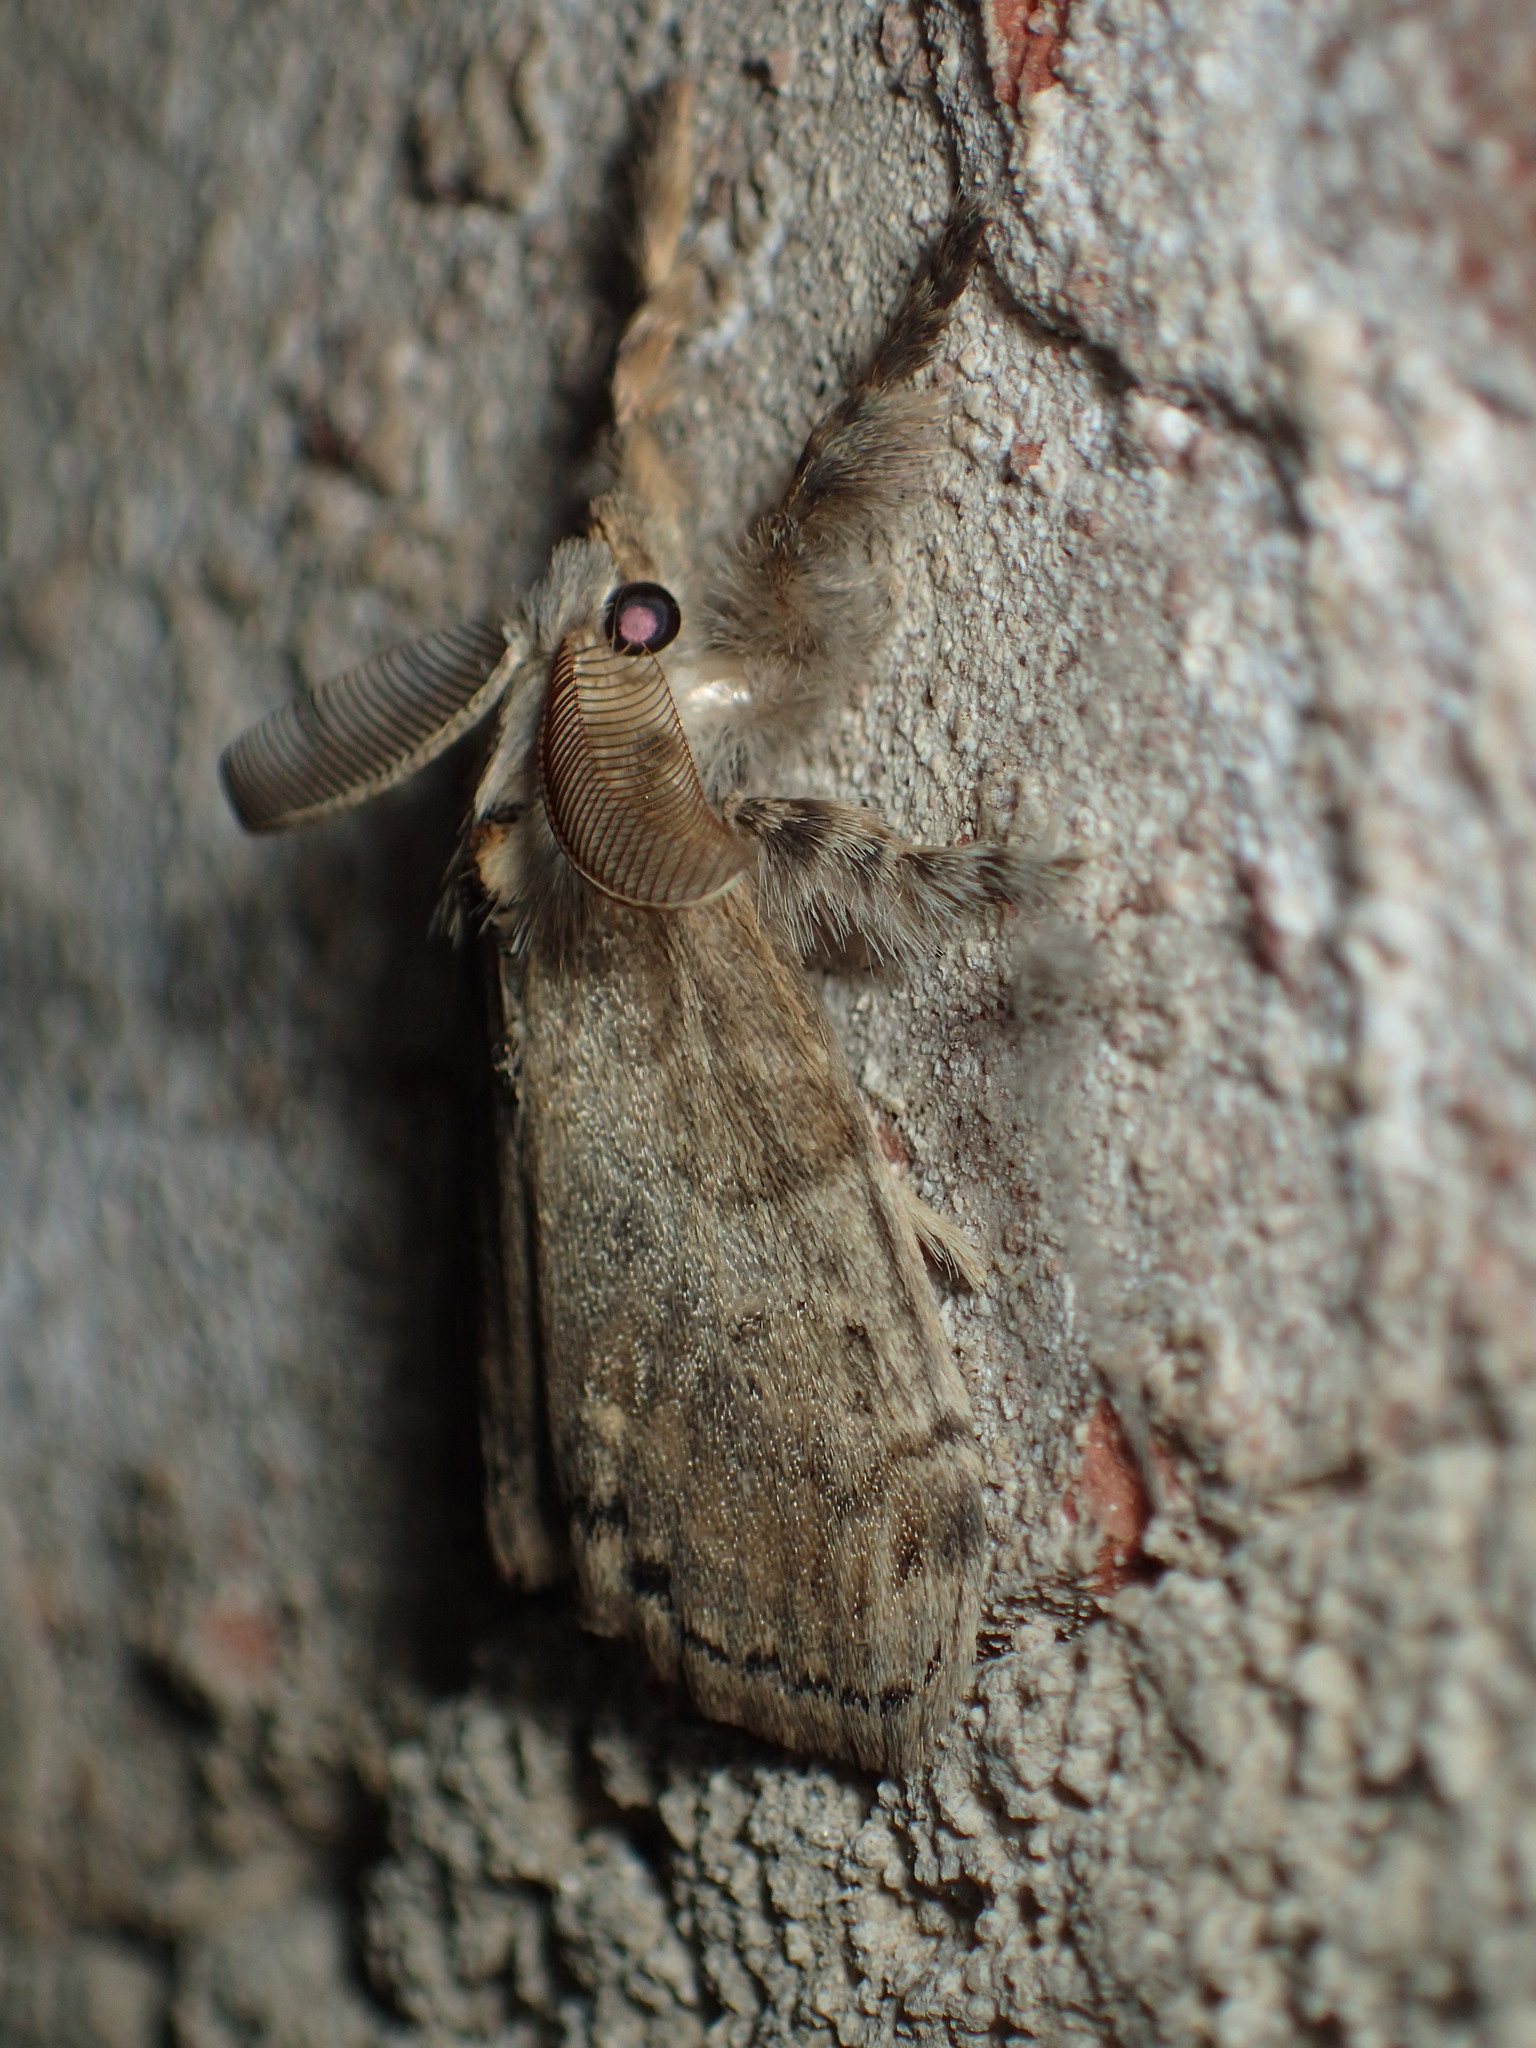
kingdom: Animalia
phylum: Arthropoda
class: Insecta
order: Lepidoptera
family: Erebidae
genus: Orgyia
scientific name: Orgyia leucostigma
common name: White-marked tussock moth
